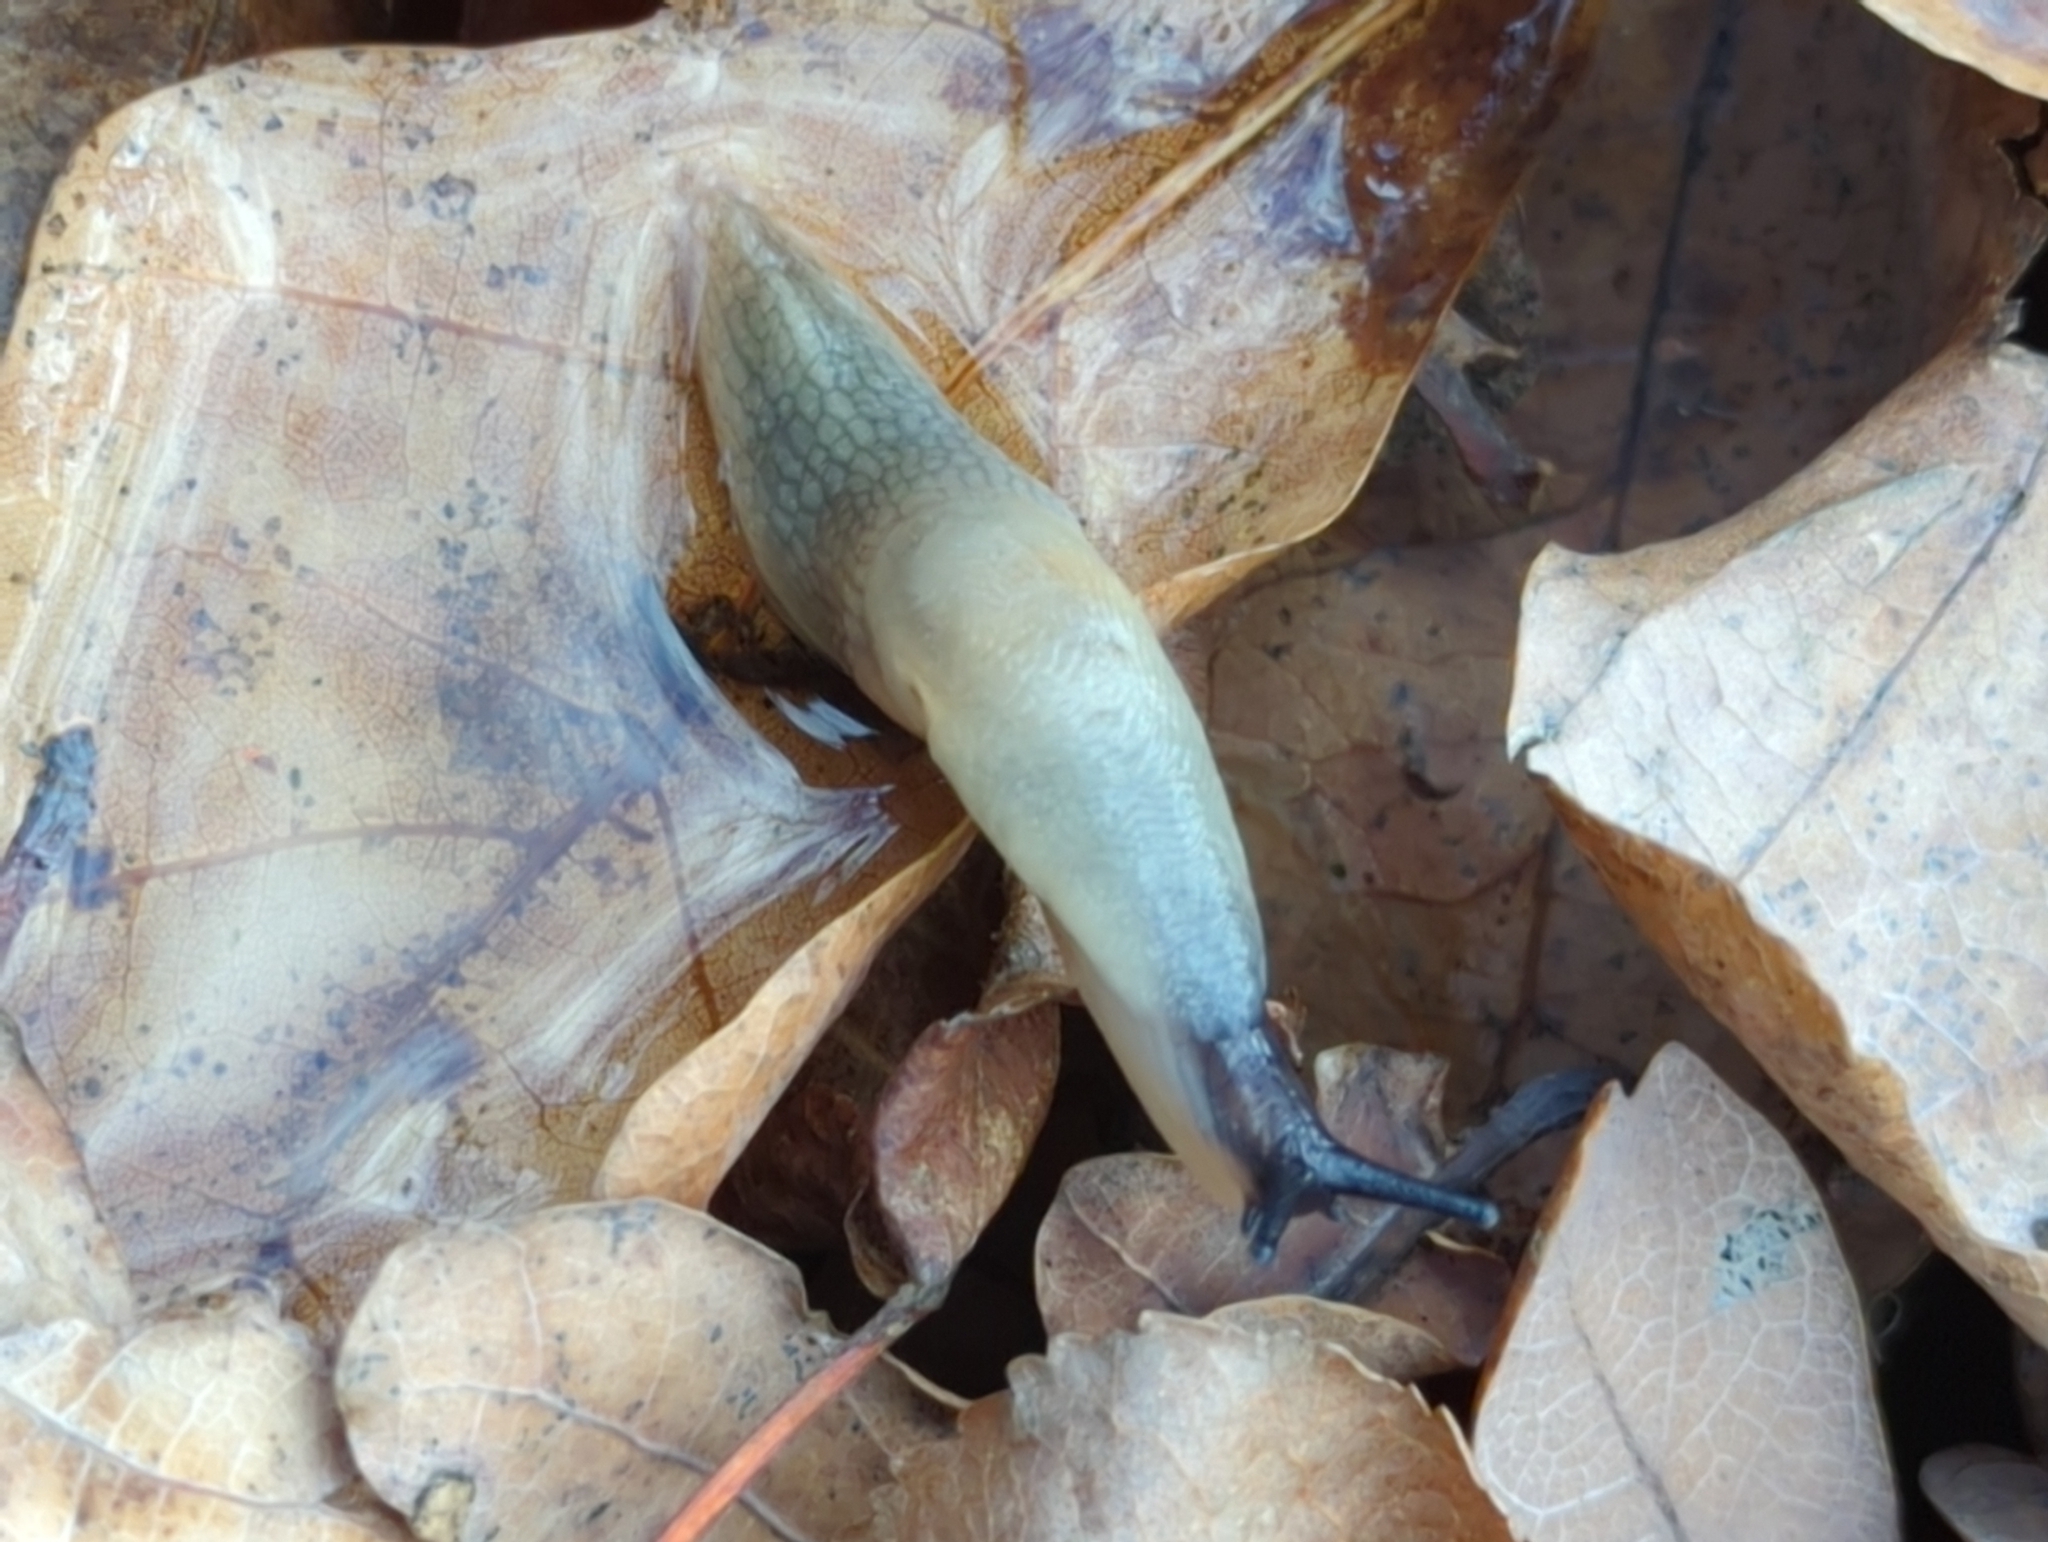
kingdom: Animalia
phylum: Mollusca
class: Gastropoda
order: Stylommatophora
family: Agriolimacidae
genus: Krynickillus
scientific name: Krynickillus melanocephalus
